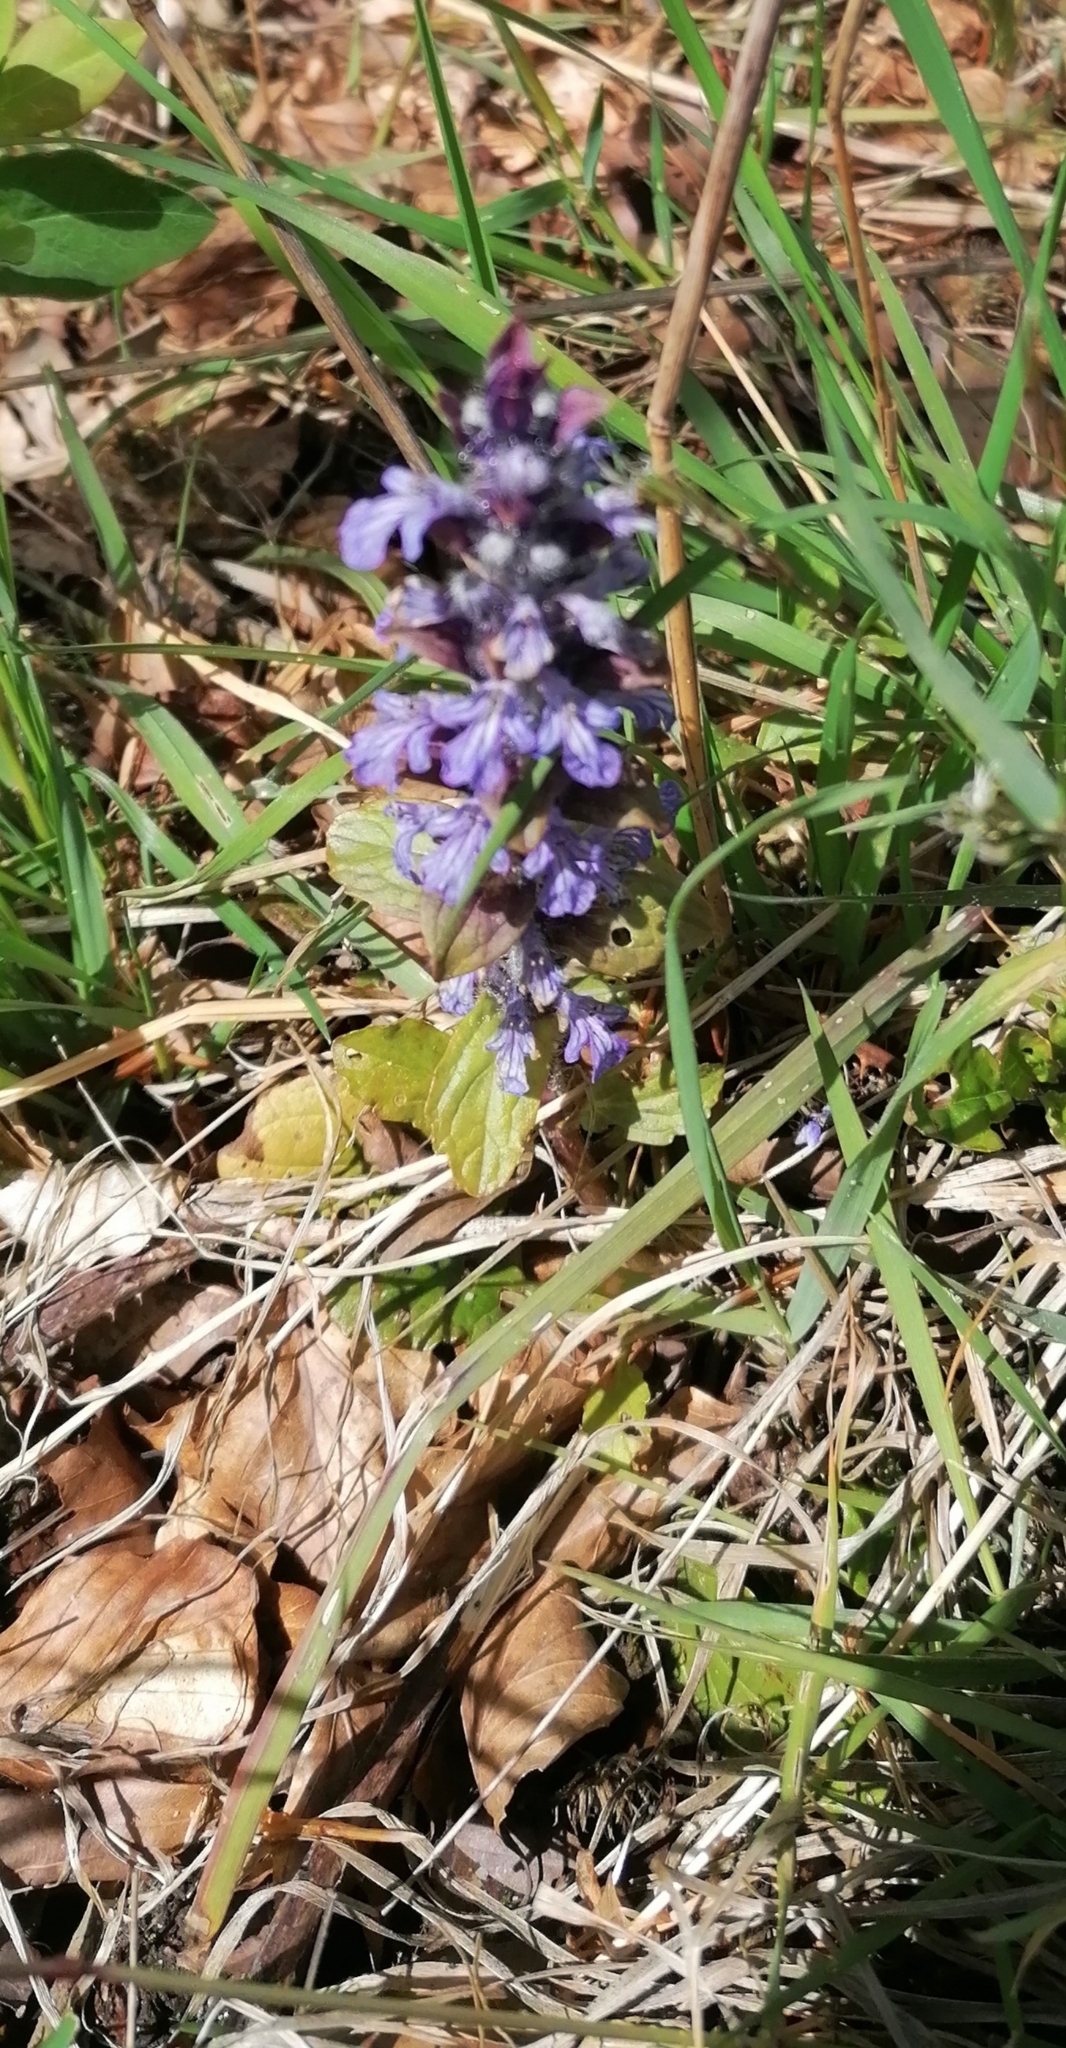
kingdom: Plantae
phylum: Tracheophyta
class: Magnoliopsida
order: Lamiales
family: Lamiaceae
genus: Ajuga
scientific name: Ajuga reptans
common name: Bugle
